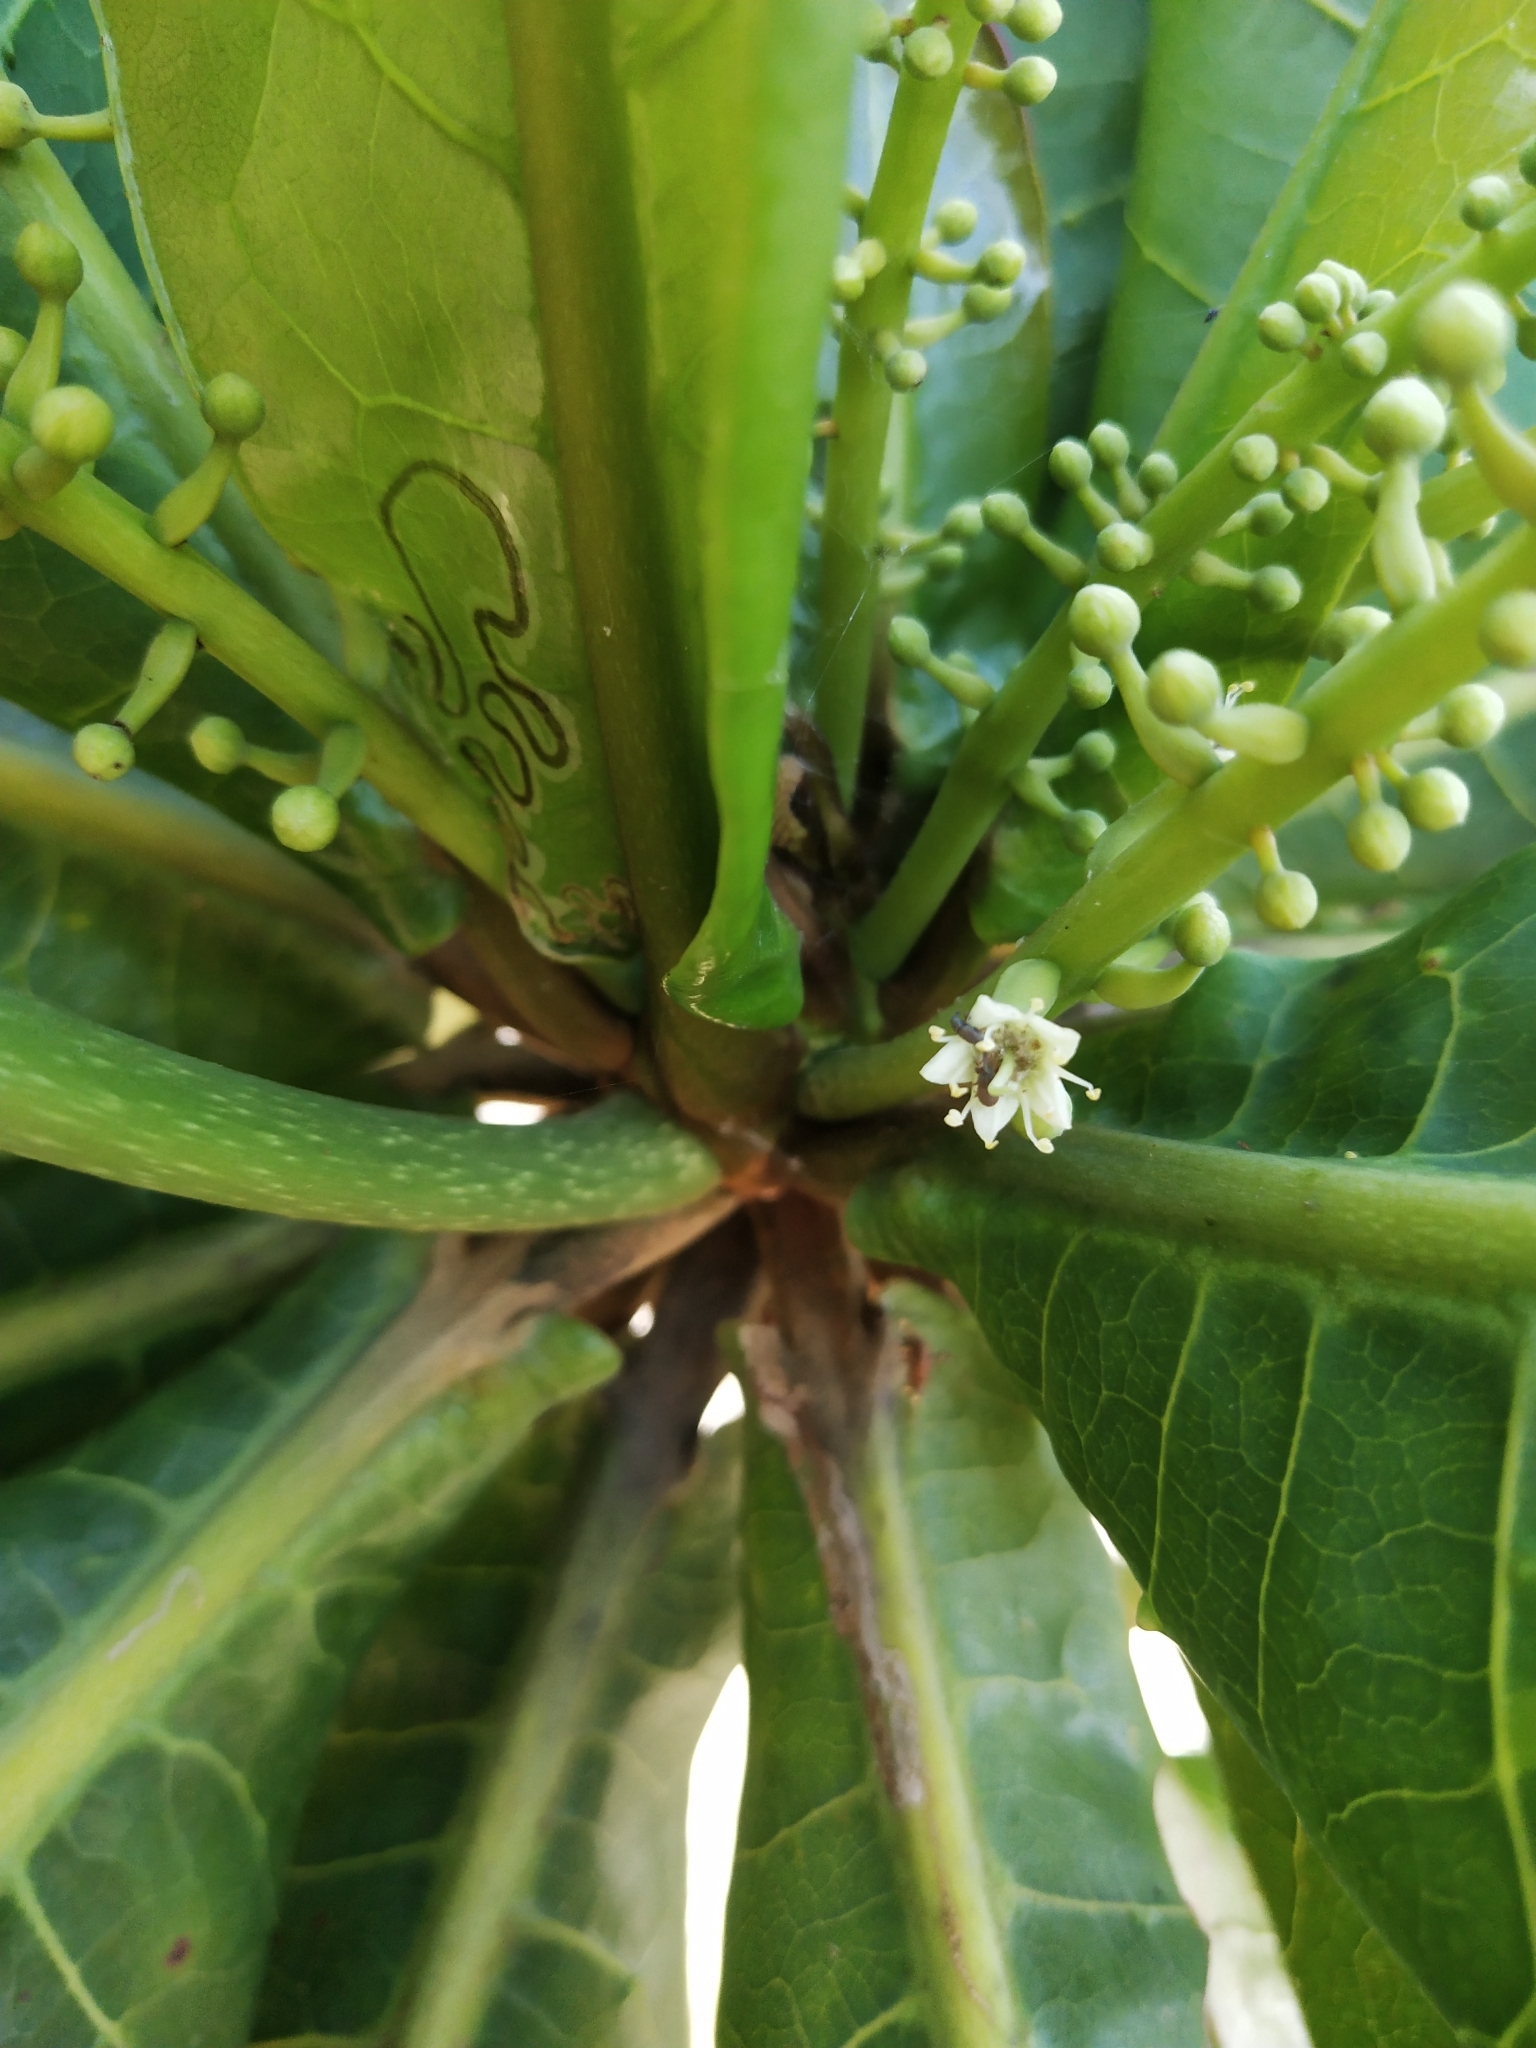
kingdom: Plantae
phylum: Tracheophyta
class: Magnoliopsida
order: Myrtales
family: Combretaceae
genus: Terminalia
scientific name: Terminalia catappa
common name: Tropical almond
